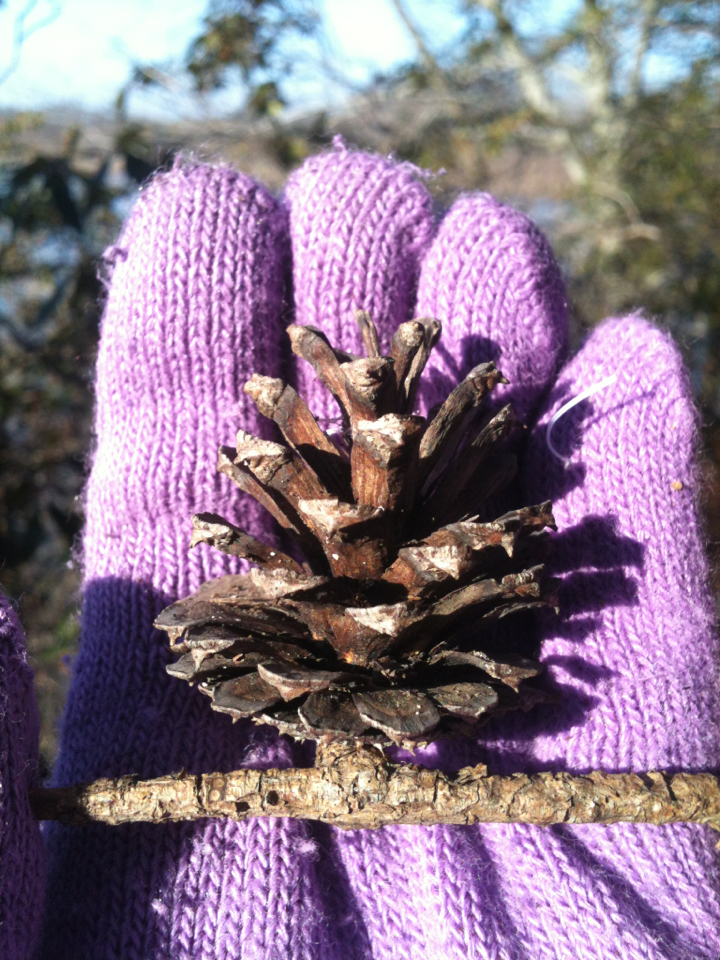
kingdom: Plantae
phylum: Tracheophyta
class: Pinopsida
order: Pinales
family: Pinaceae
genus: Pinus
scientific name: Pinus virginiana
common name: Scrub pine
